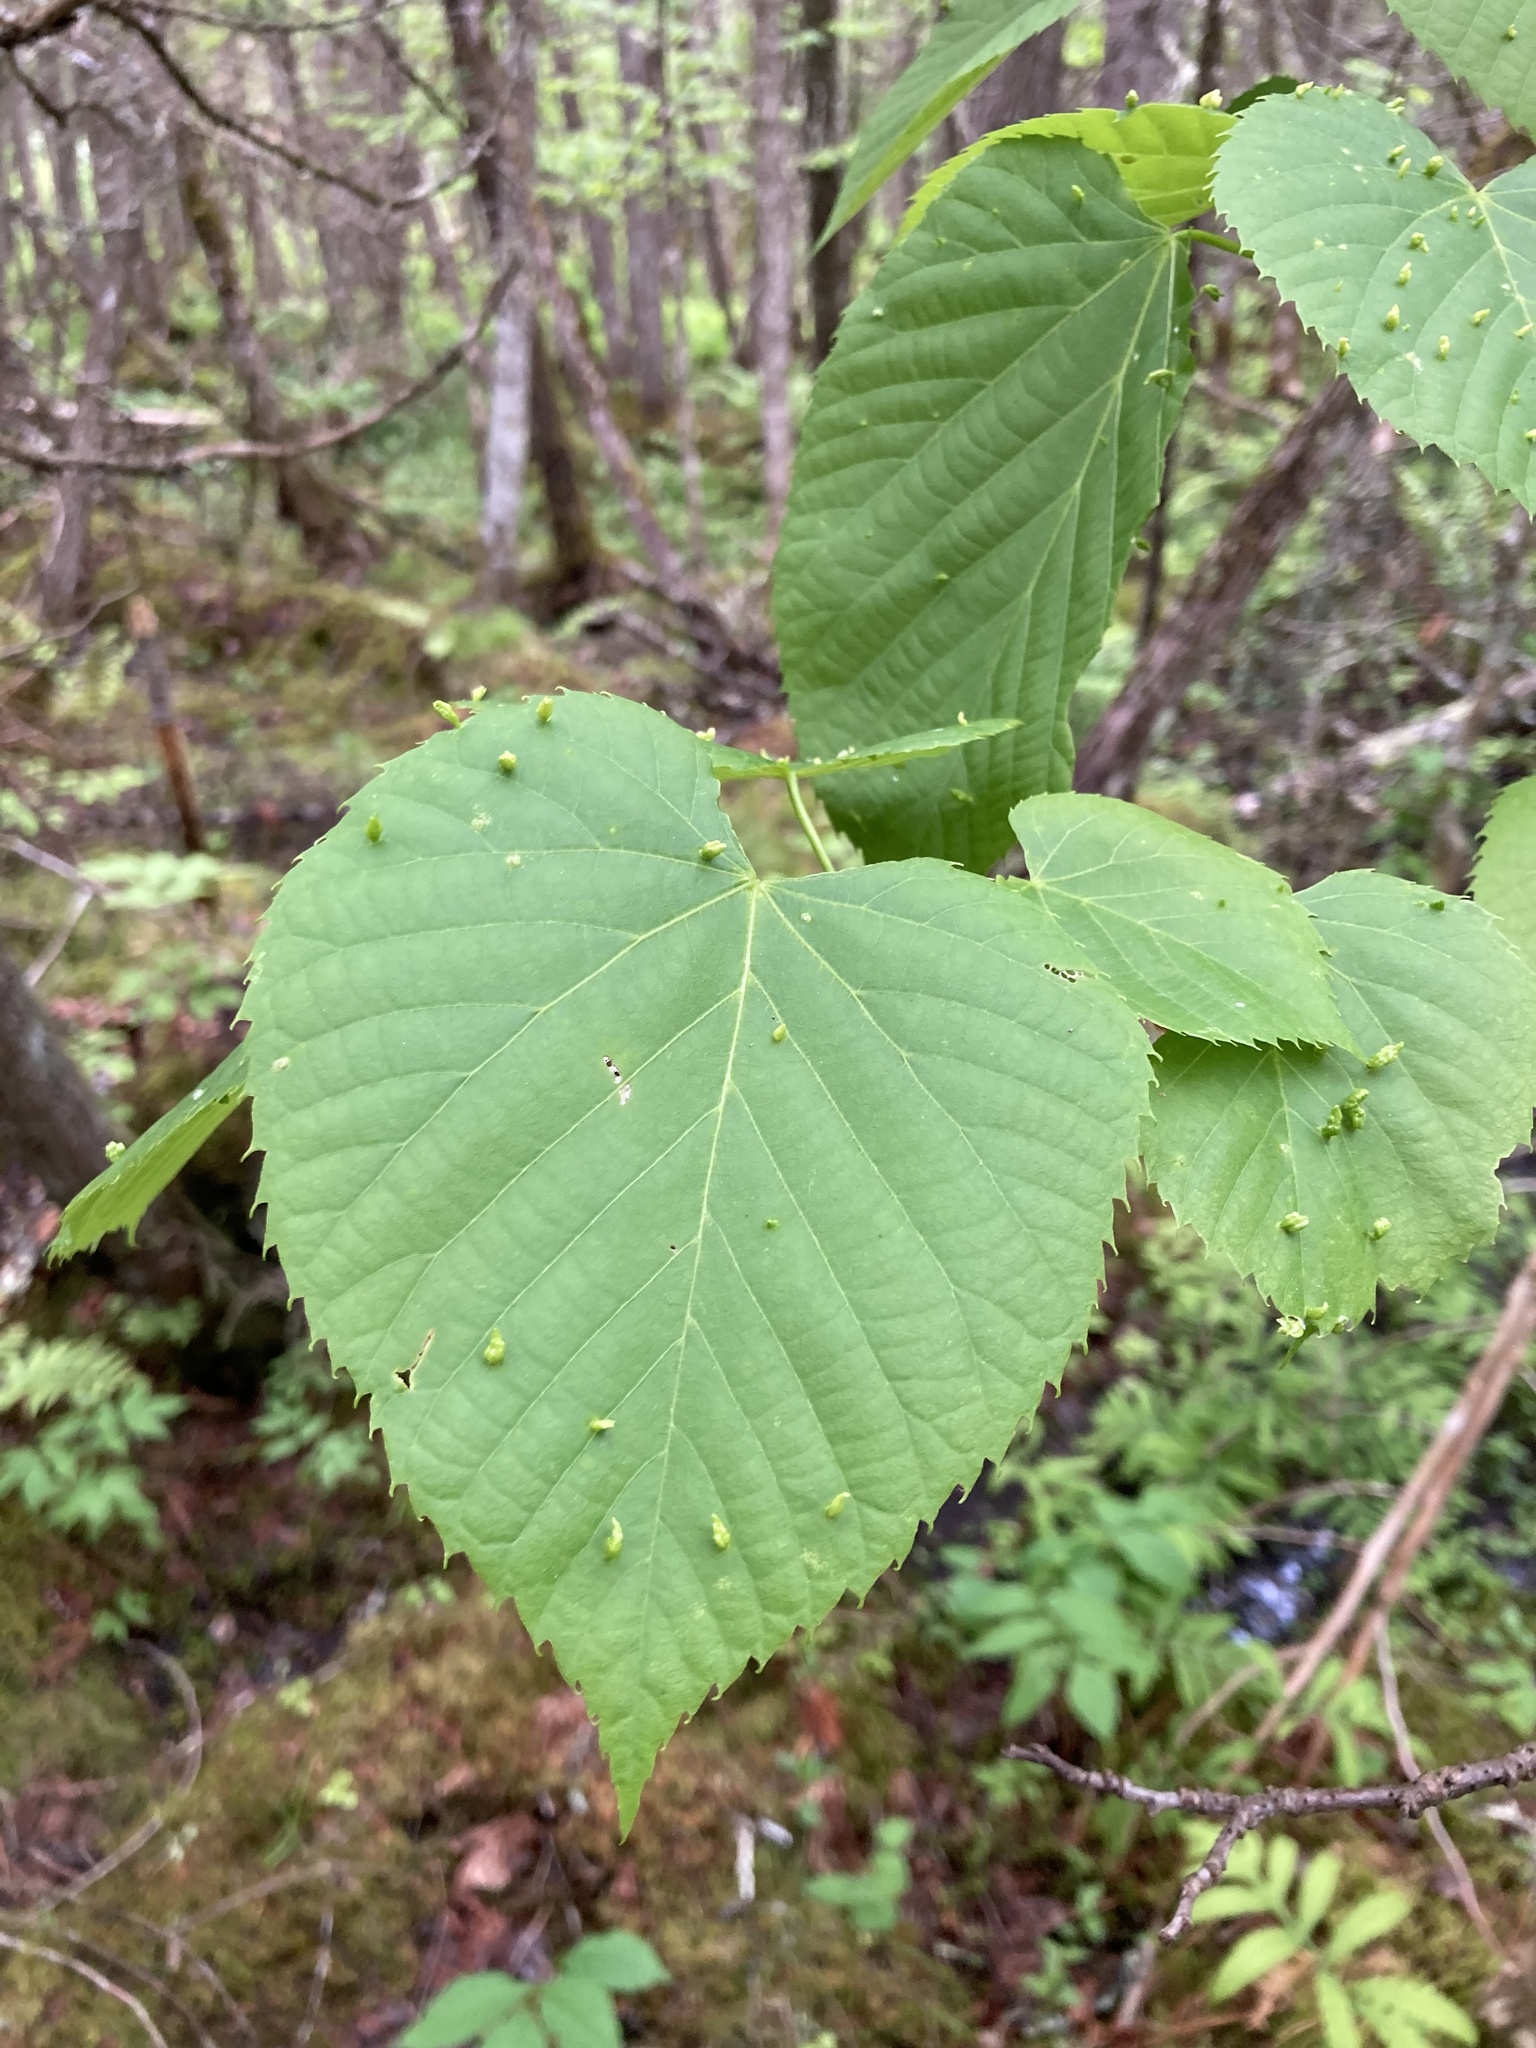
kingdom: Plantae
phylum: Tracheophyta
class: Magnoliopsida
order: Malvales
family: Malvaceae
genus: Tilia
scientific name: Tilia americana
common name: Basswood
